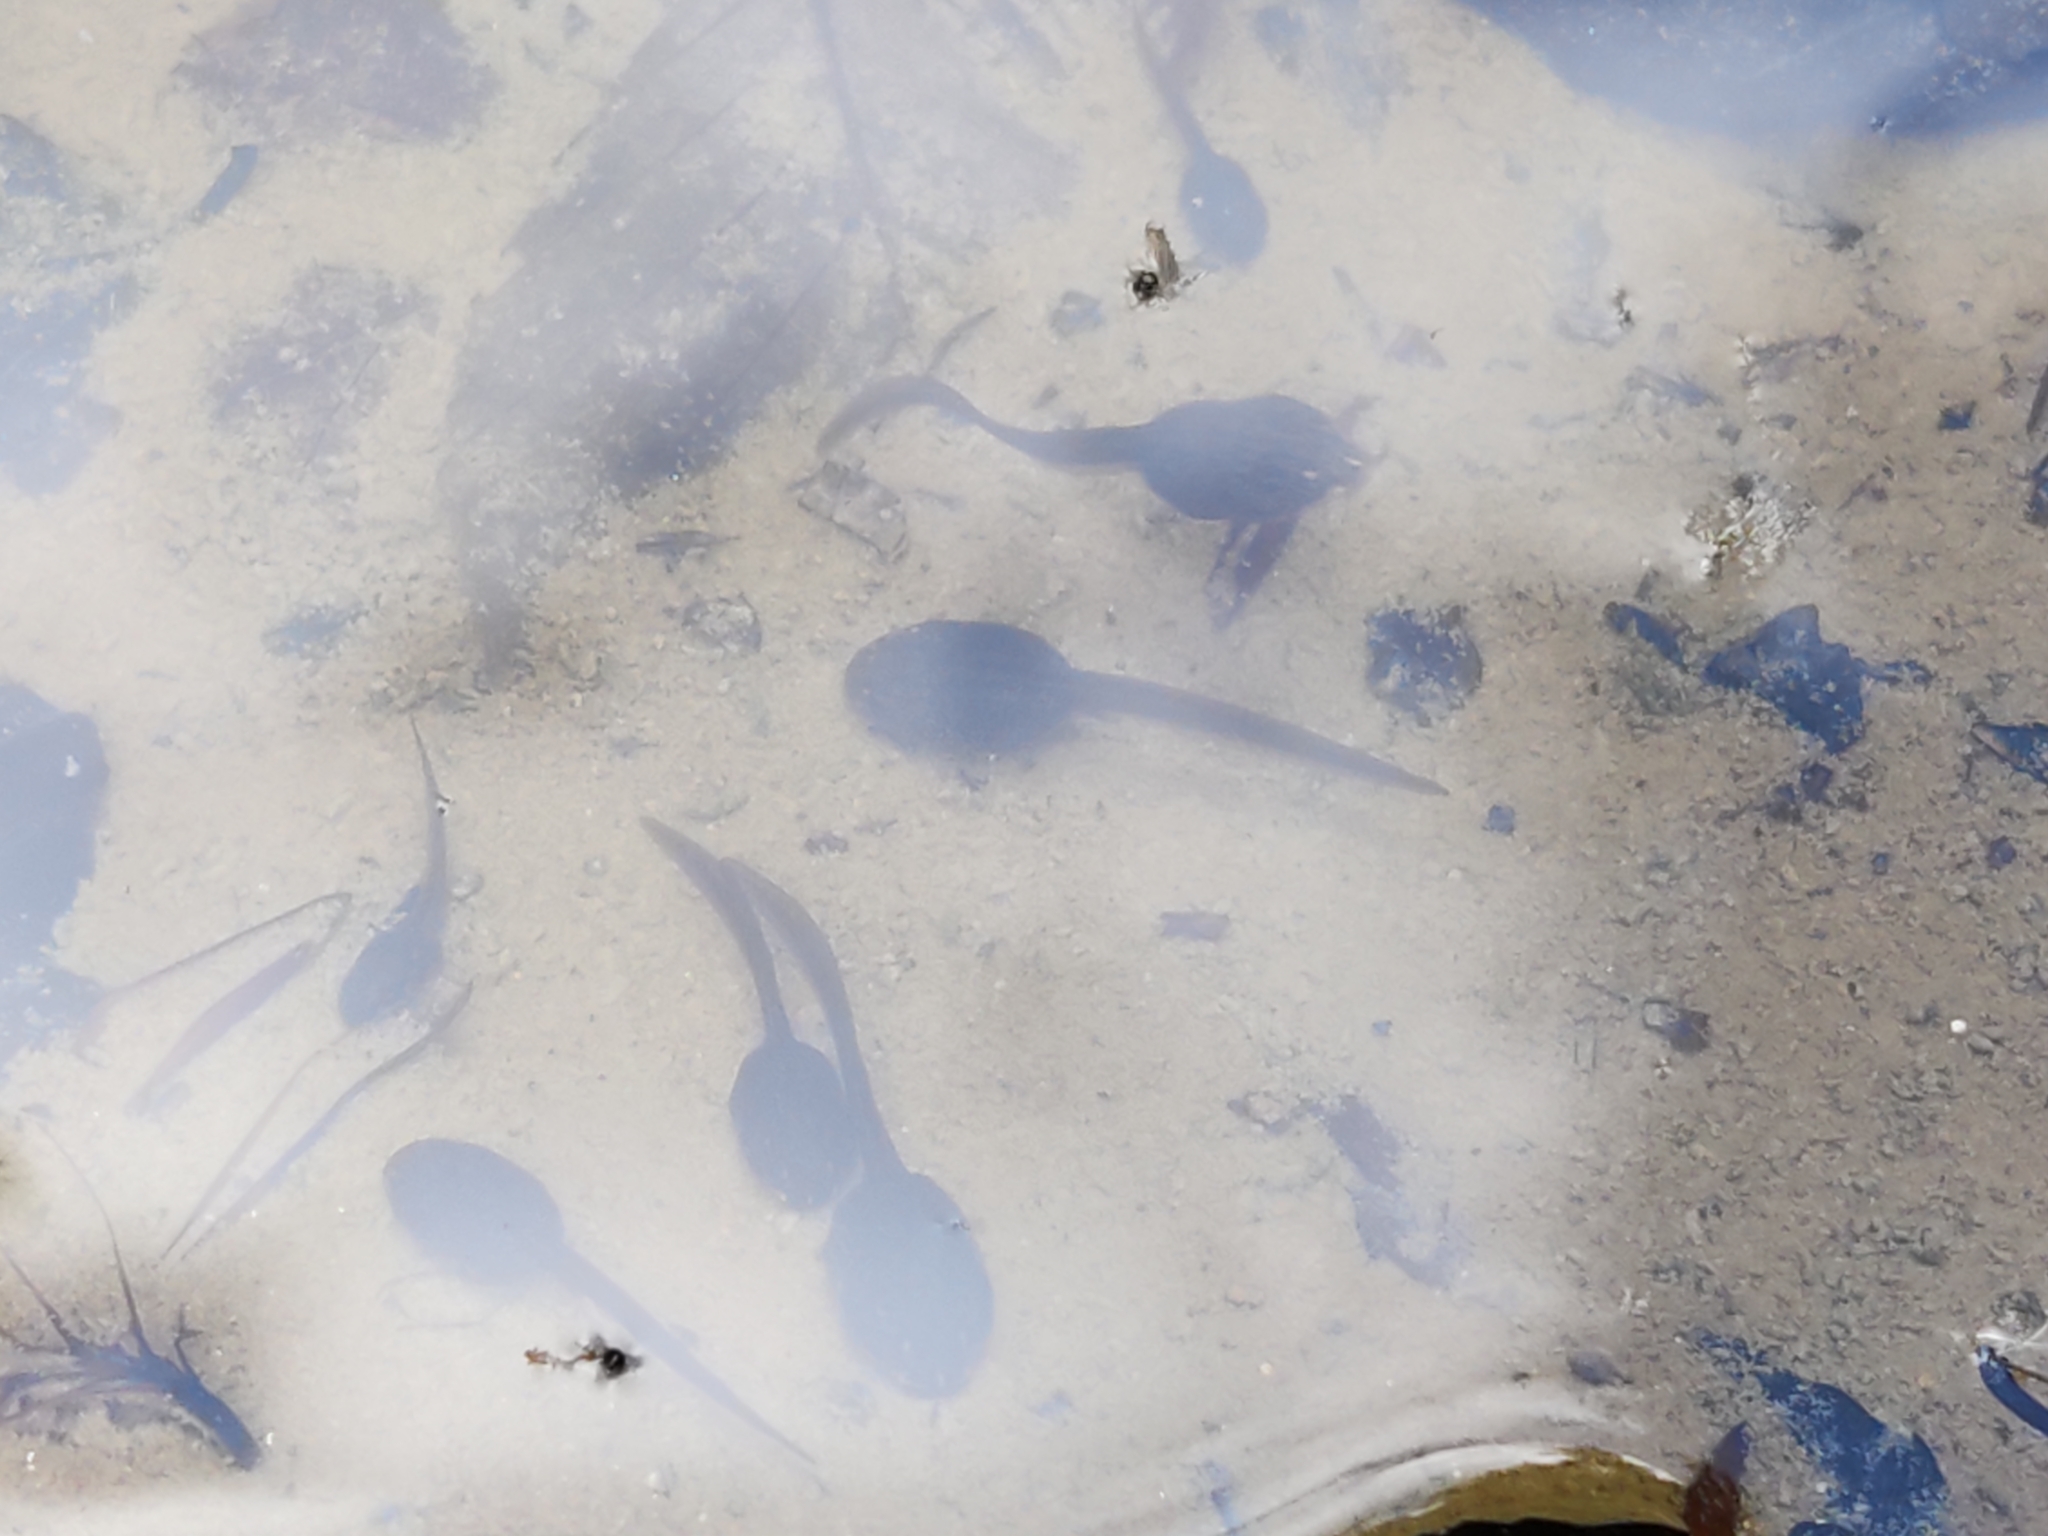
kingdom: Animalia
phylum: Chordata
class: Amphibia
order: Anura
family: Ranidae
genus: Rana
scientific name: Rana temporaria
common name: Common frog
